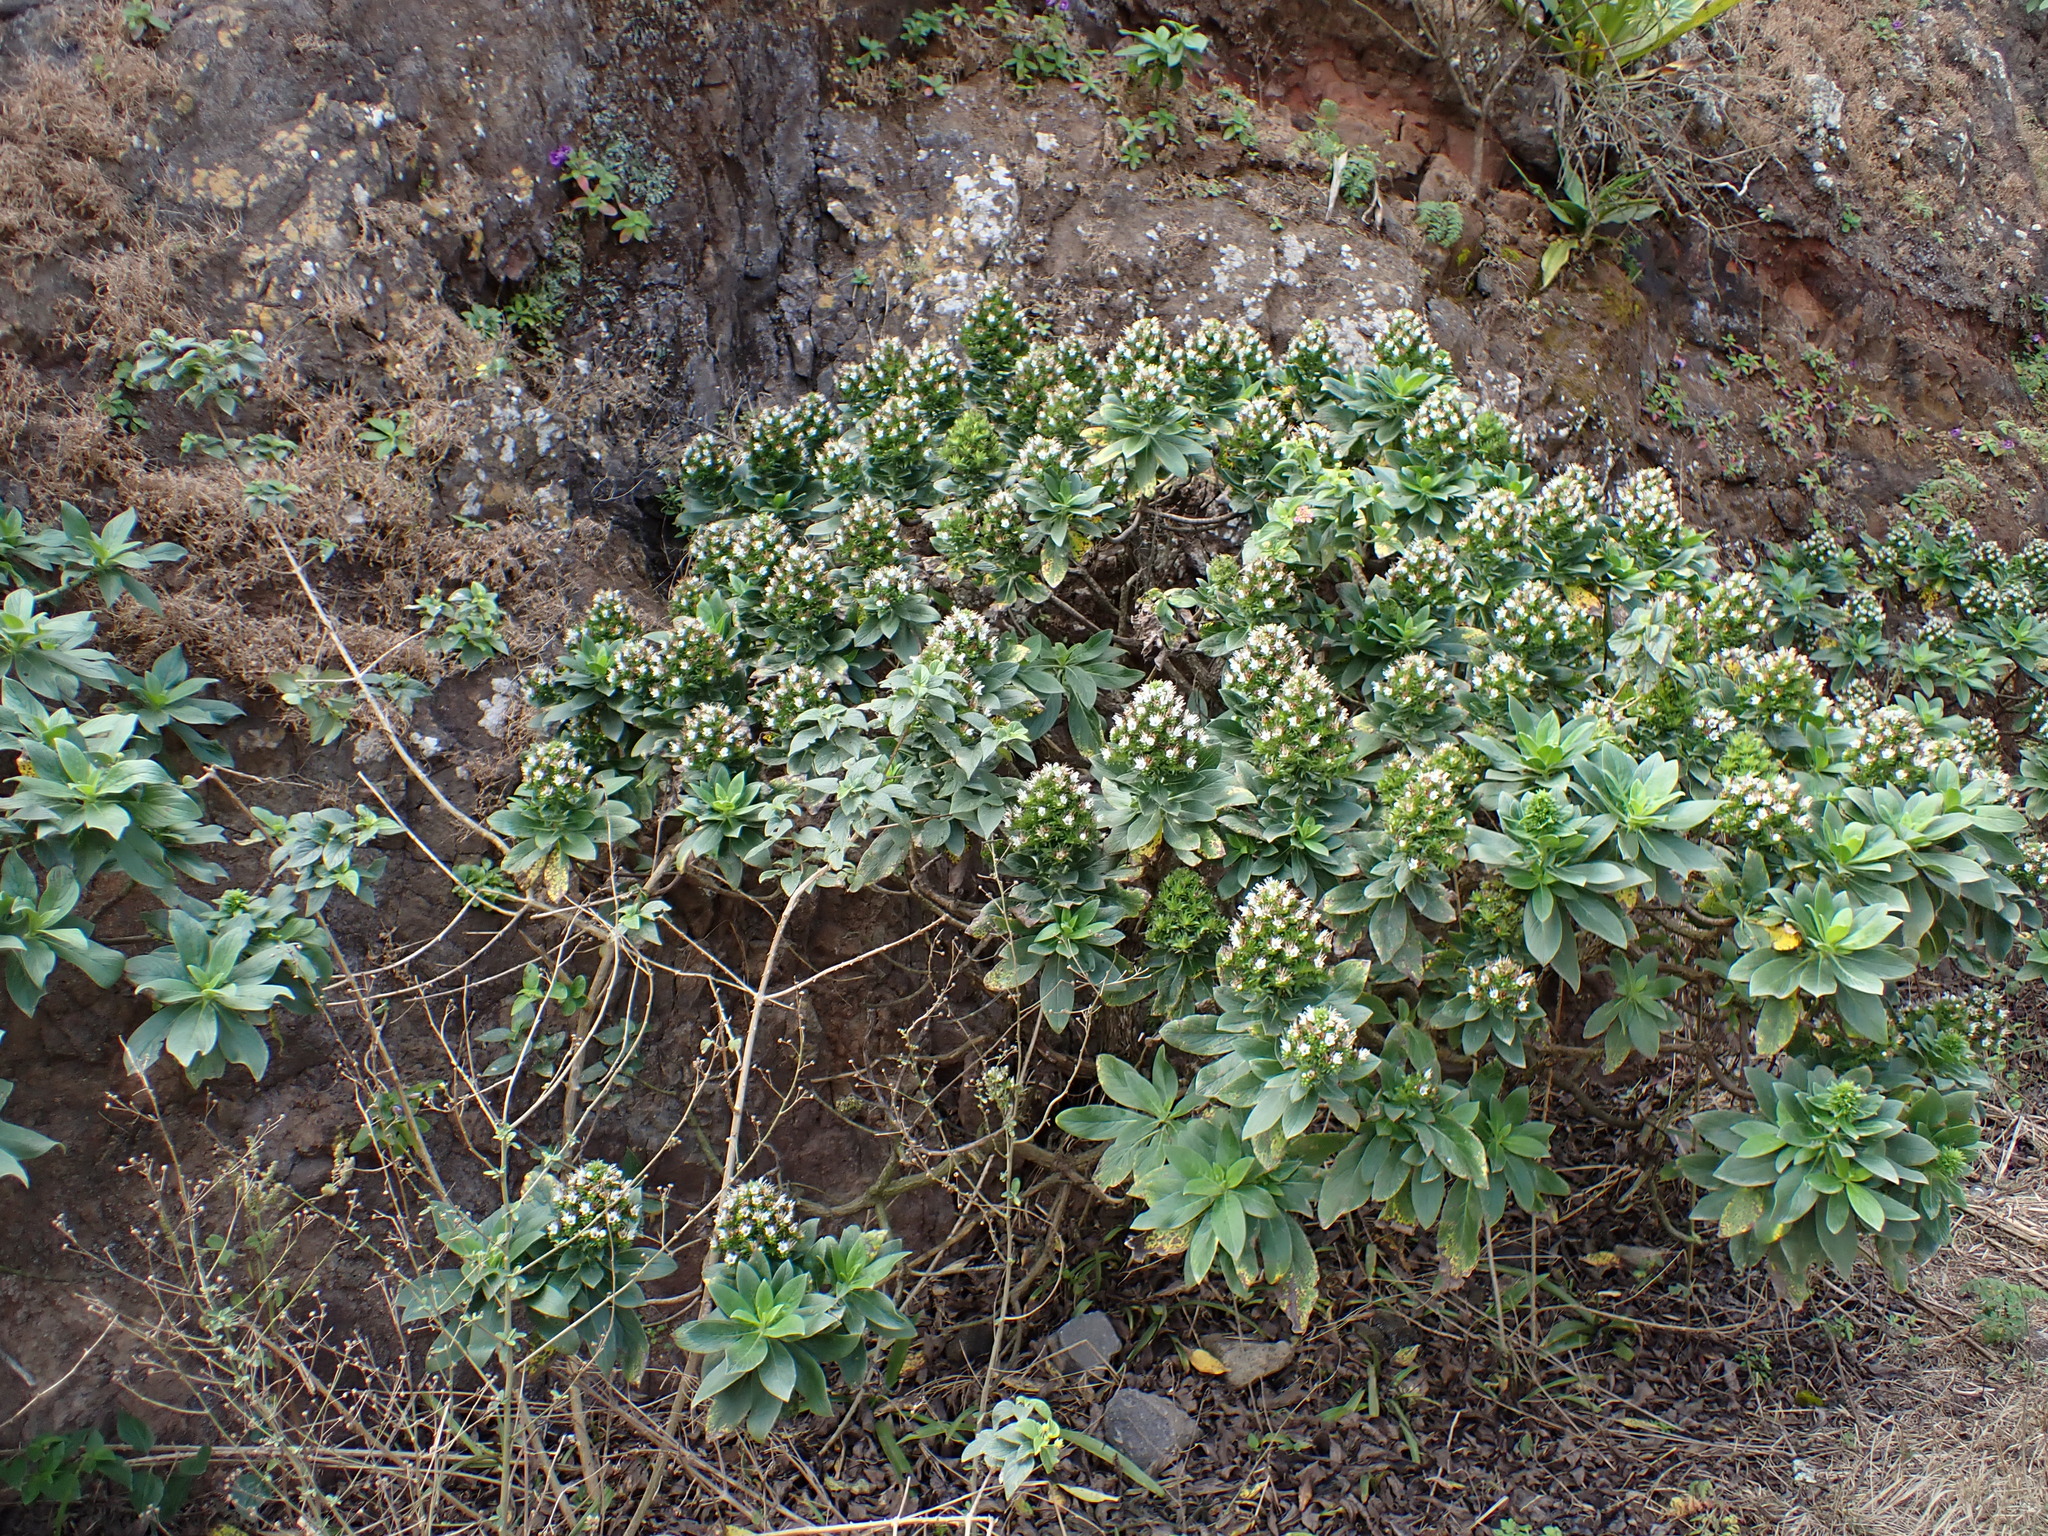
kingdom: Plantae
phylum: Tracheophyta
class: Magnoliopsida
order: Boraginales
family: Boraginaceae
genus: Echium
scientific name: Echium hypertropicum
